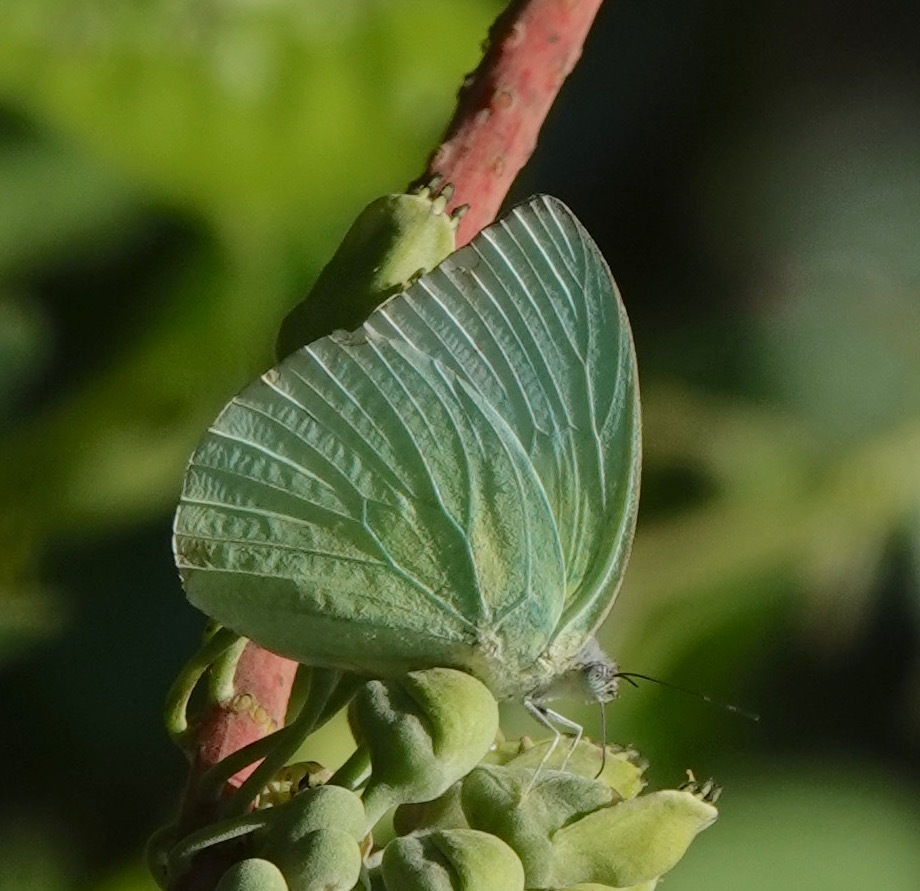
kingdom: Animalia
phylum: Arthropoda
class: Insecta
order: Lepidoptera
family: Pieridae
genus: Catopsilia
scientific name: Catopsilia pomona
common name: Common emigrant
